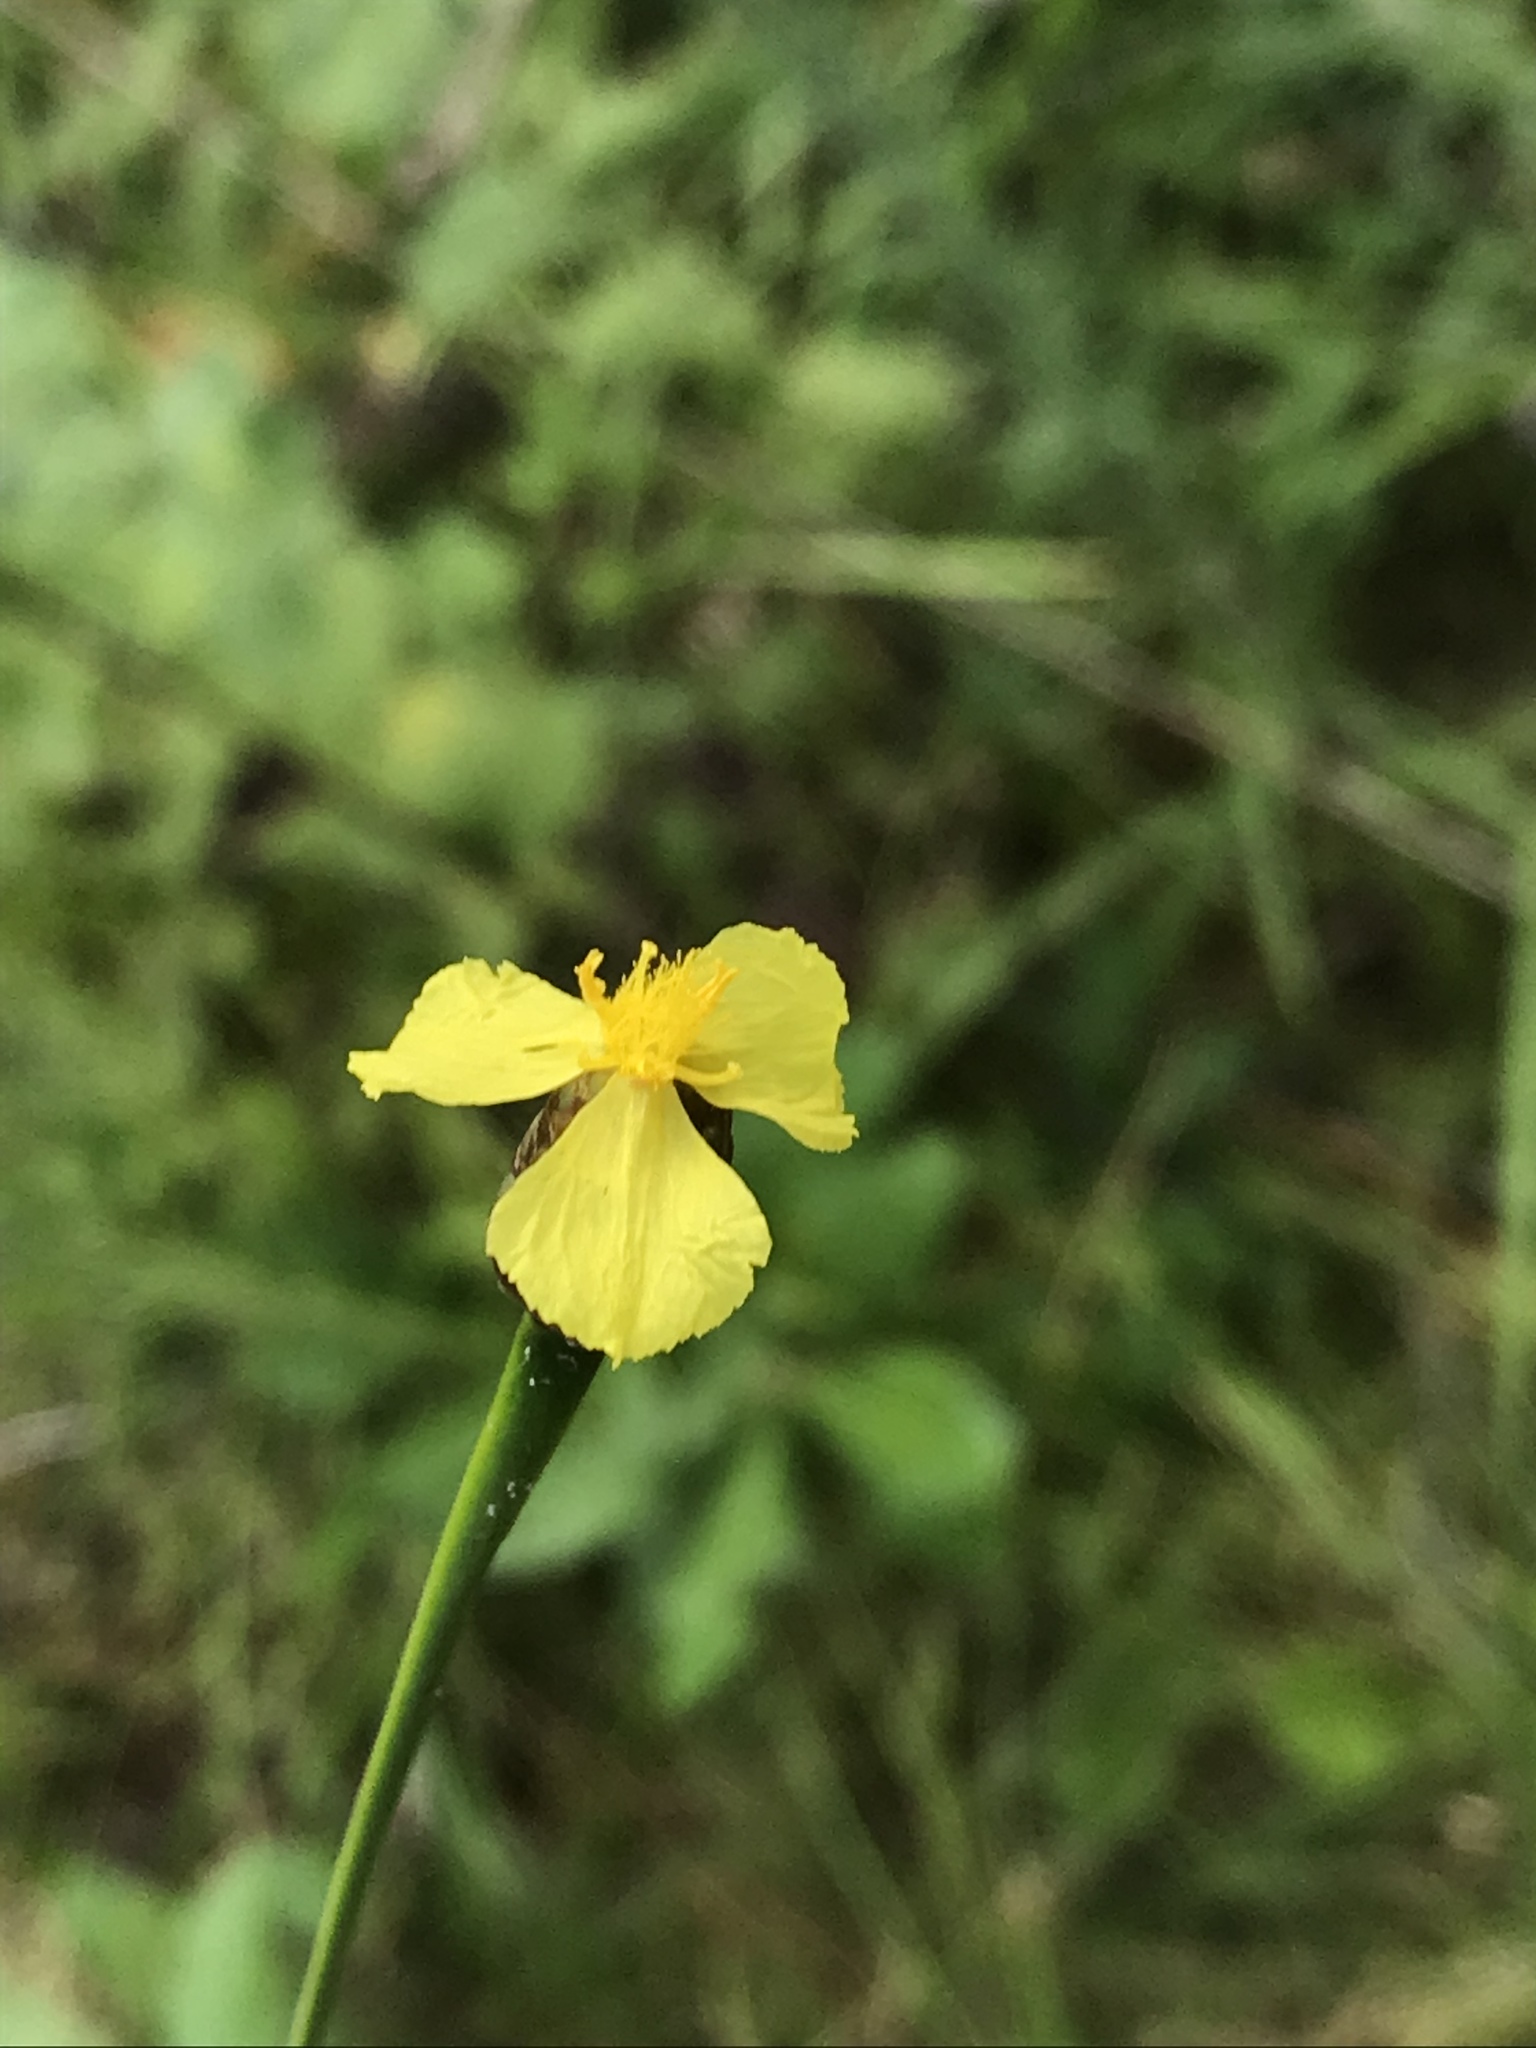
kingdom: Plantae
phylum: Tracheophyta
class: Liliopsida
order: Poales
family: Xyridaceae
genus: Xyris
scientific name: Xyris ambigua
